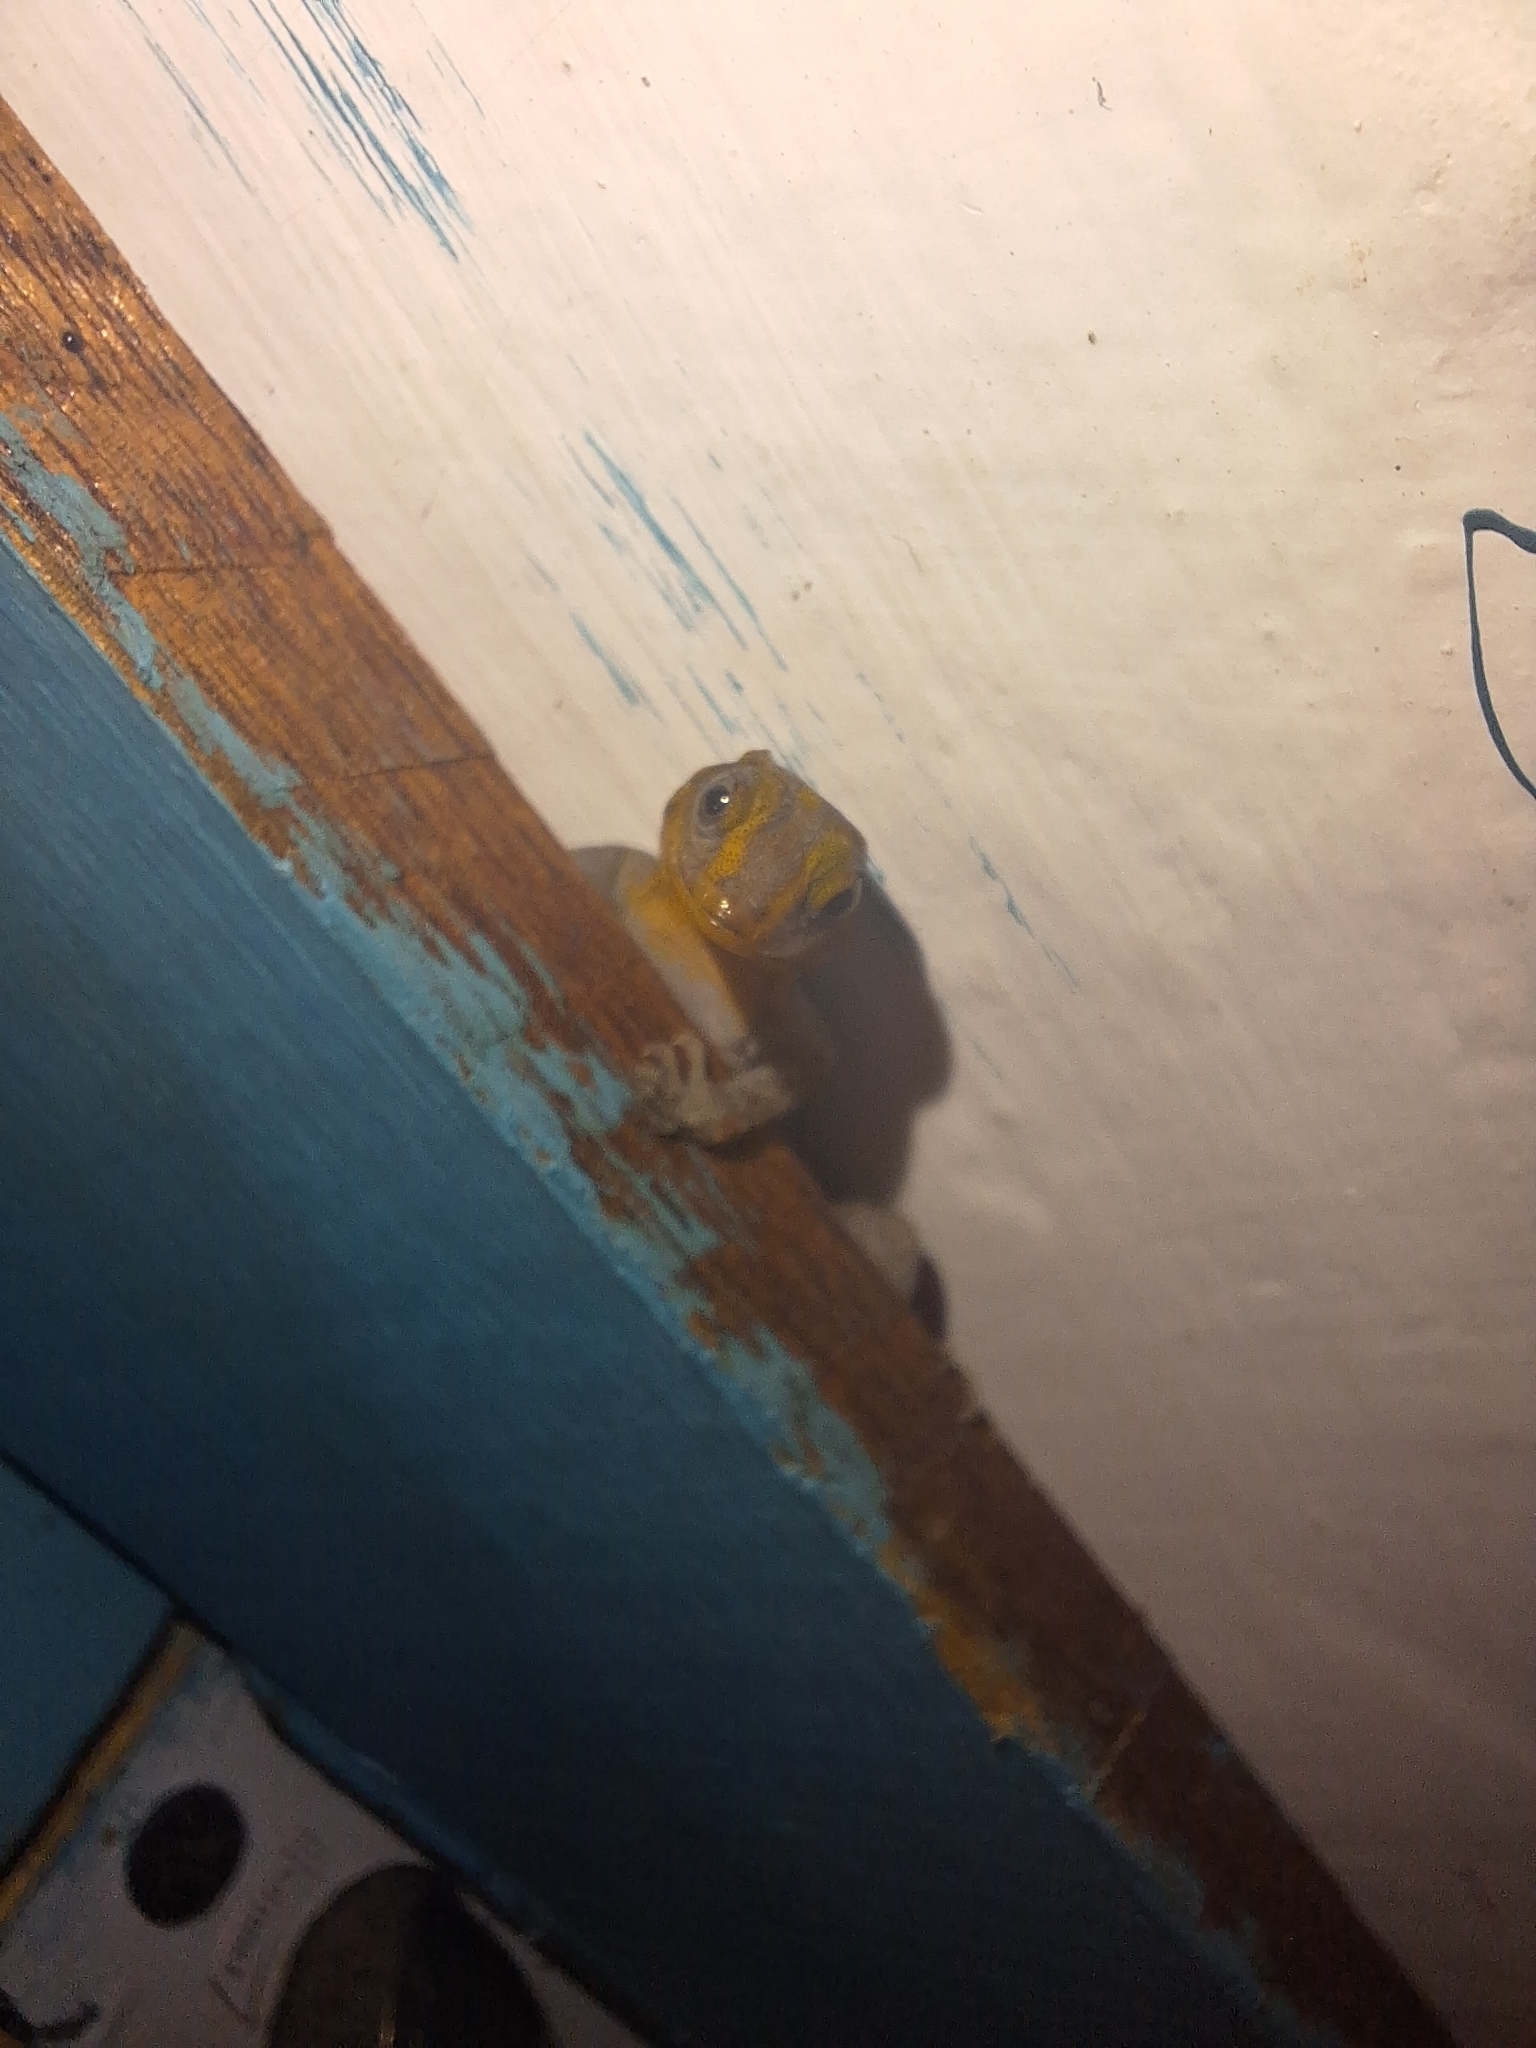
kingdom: Animalia
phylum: Chordata
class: Squamata
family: Sphaerodactylidae
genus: Gonatodes
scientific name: Gonatodes caudiscutatus
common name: Shieldhead gecko
